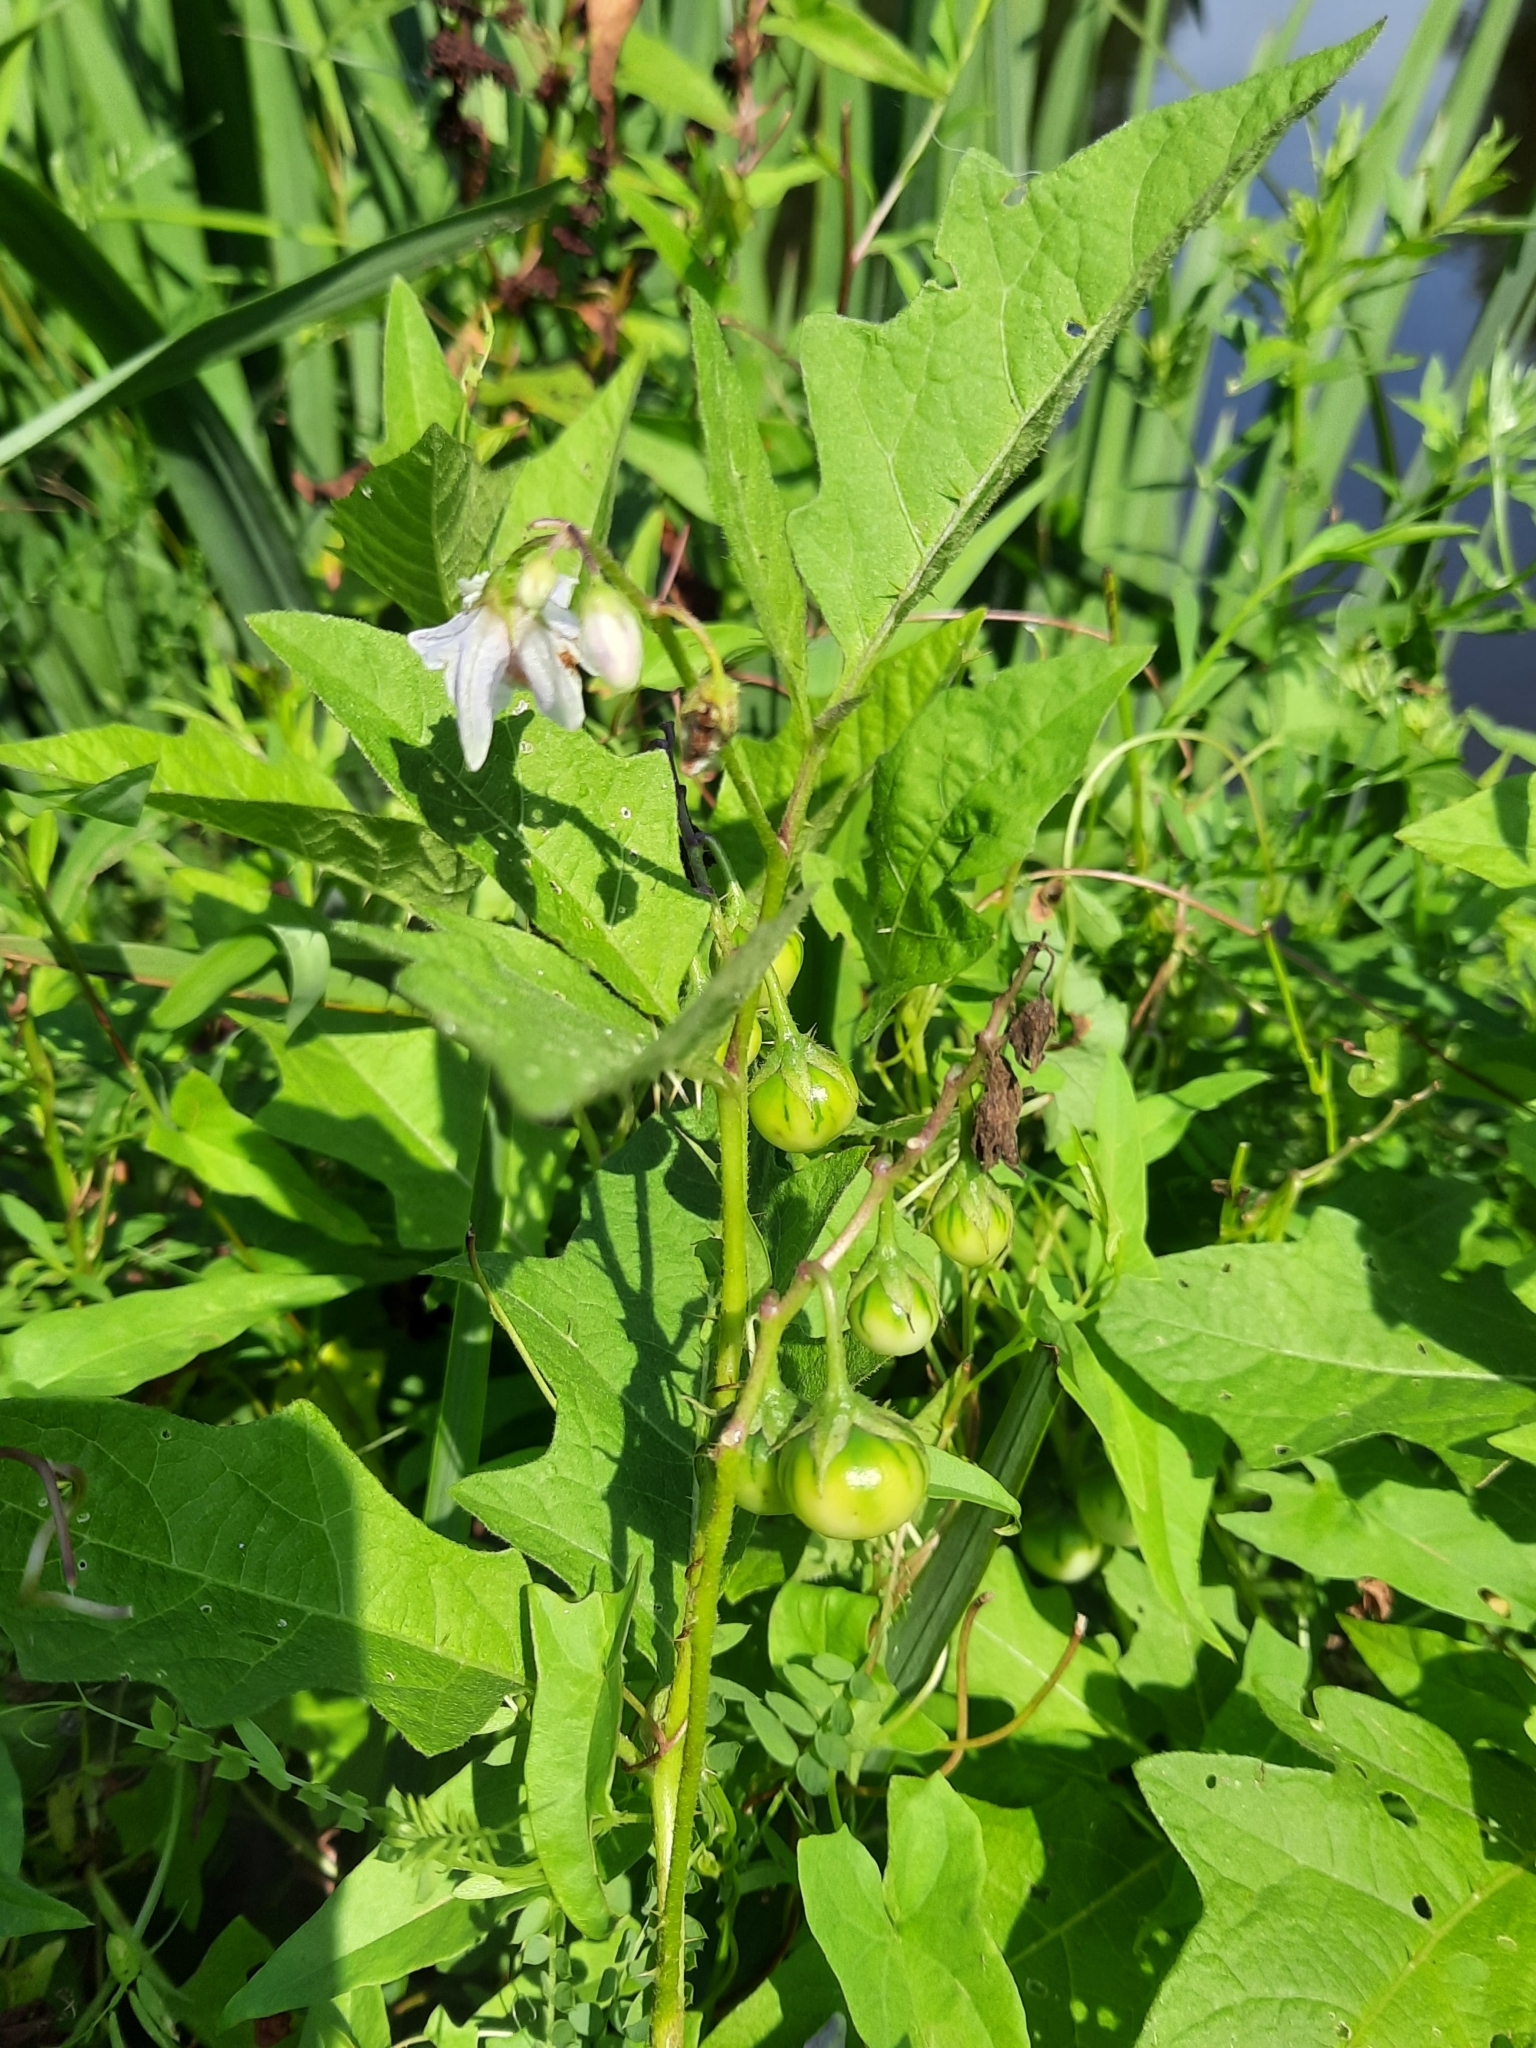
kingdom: Plantae
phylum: Tracheophyta
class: Magnoliopsida
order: Solanales
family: Solanaceae
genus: Solanum
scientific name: Solanum carolinense
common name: Horse-nettle
